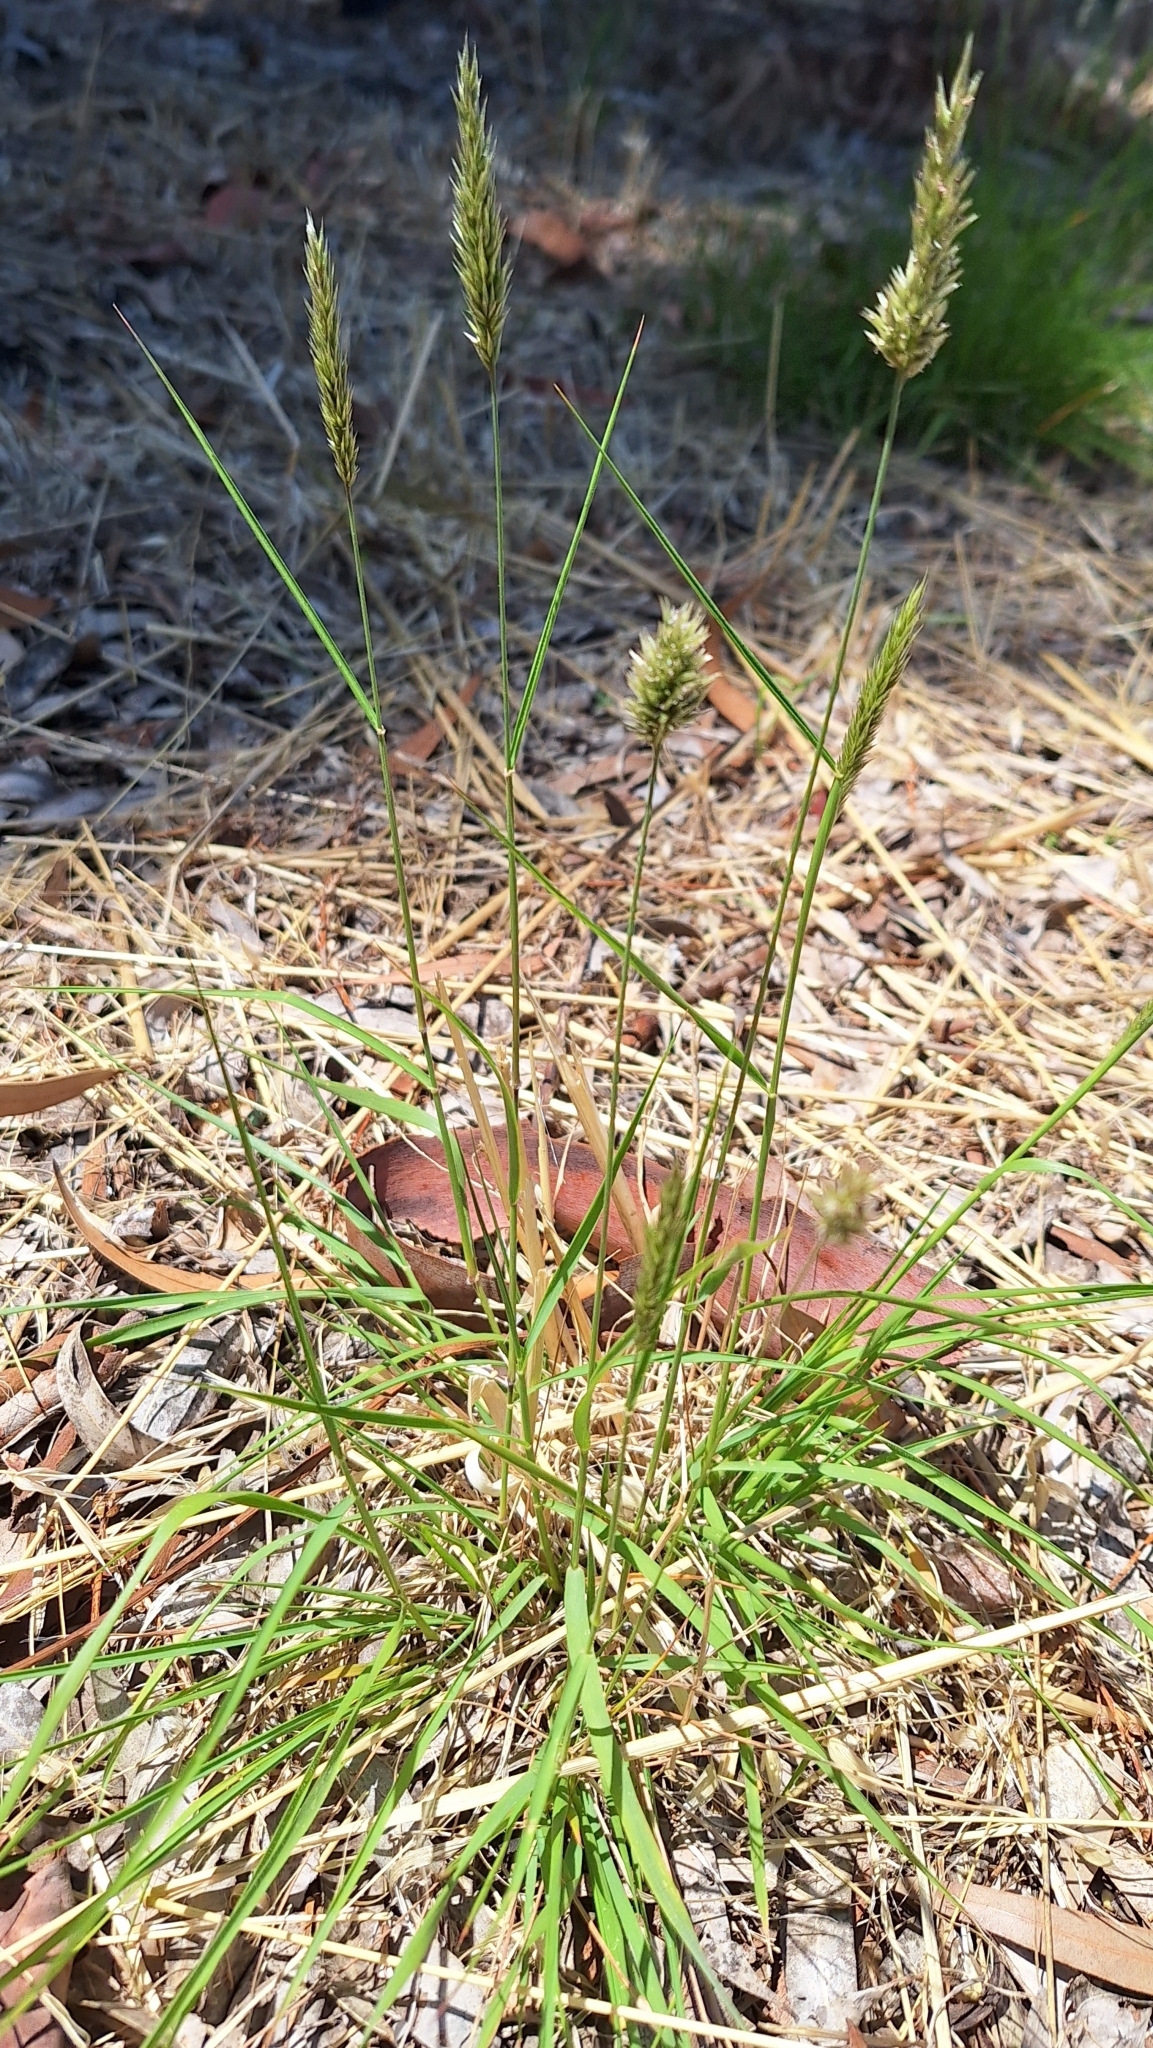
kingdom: Plantae
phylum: Tracheophyta
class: Liliopsida
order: Poales
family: Poaceae
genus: Enneapogon
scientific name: Enneapogon nigricans
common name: Pappus grass
